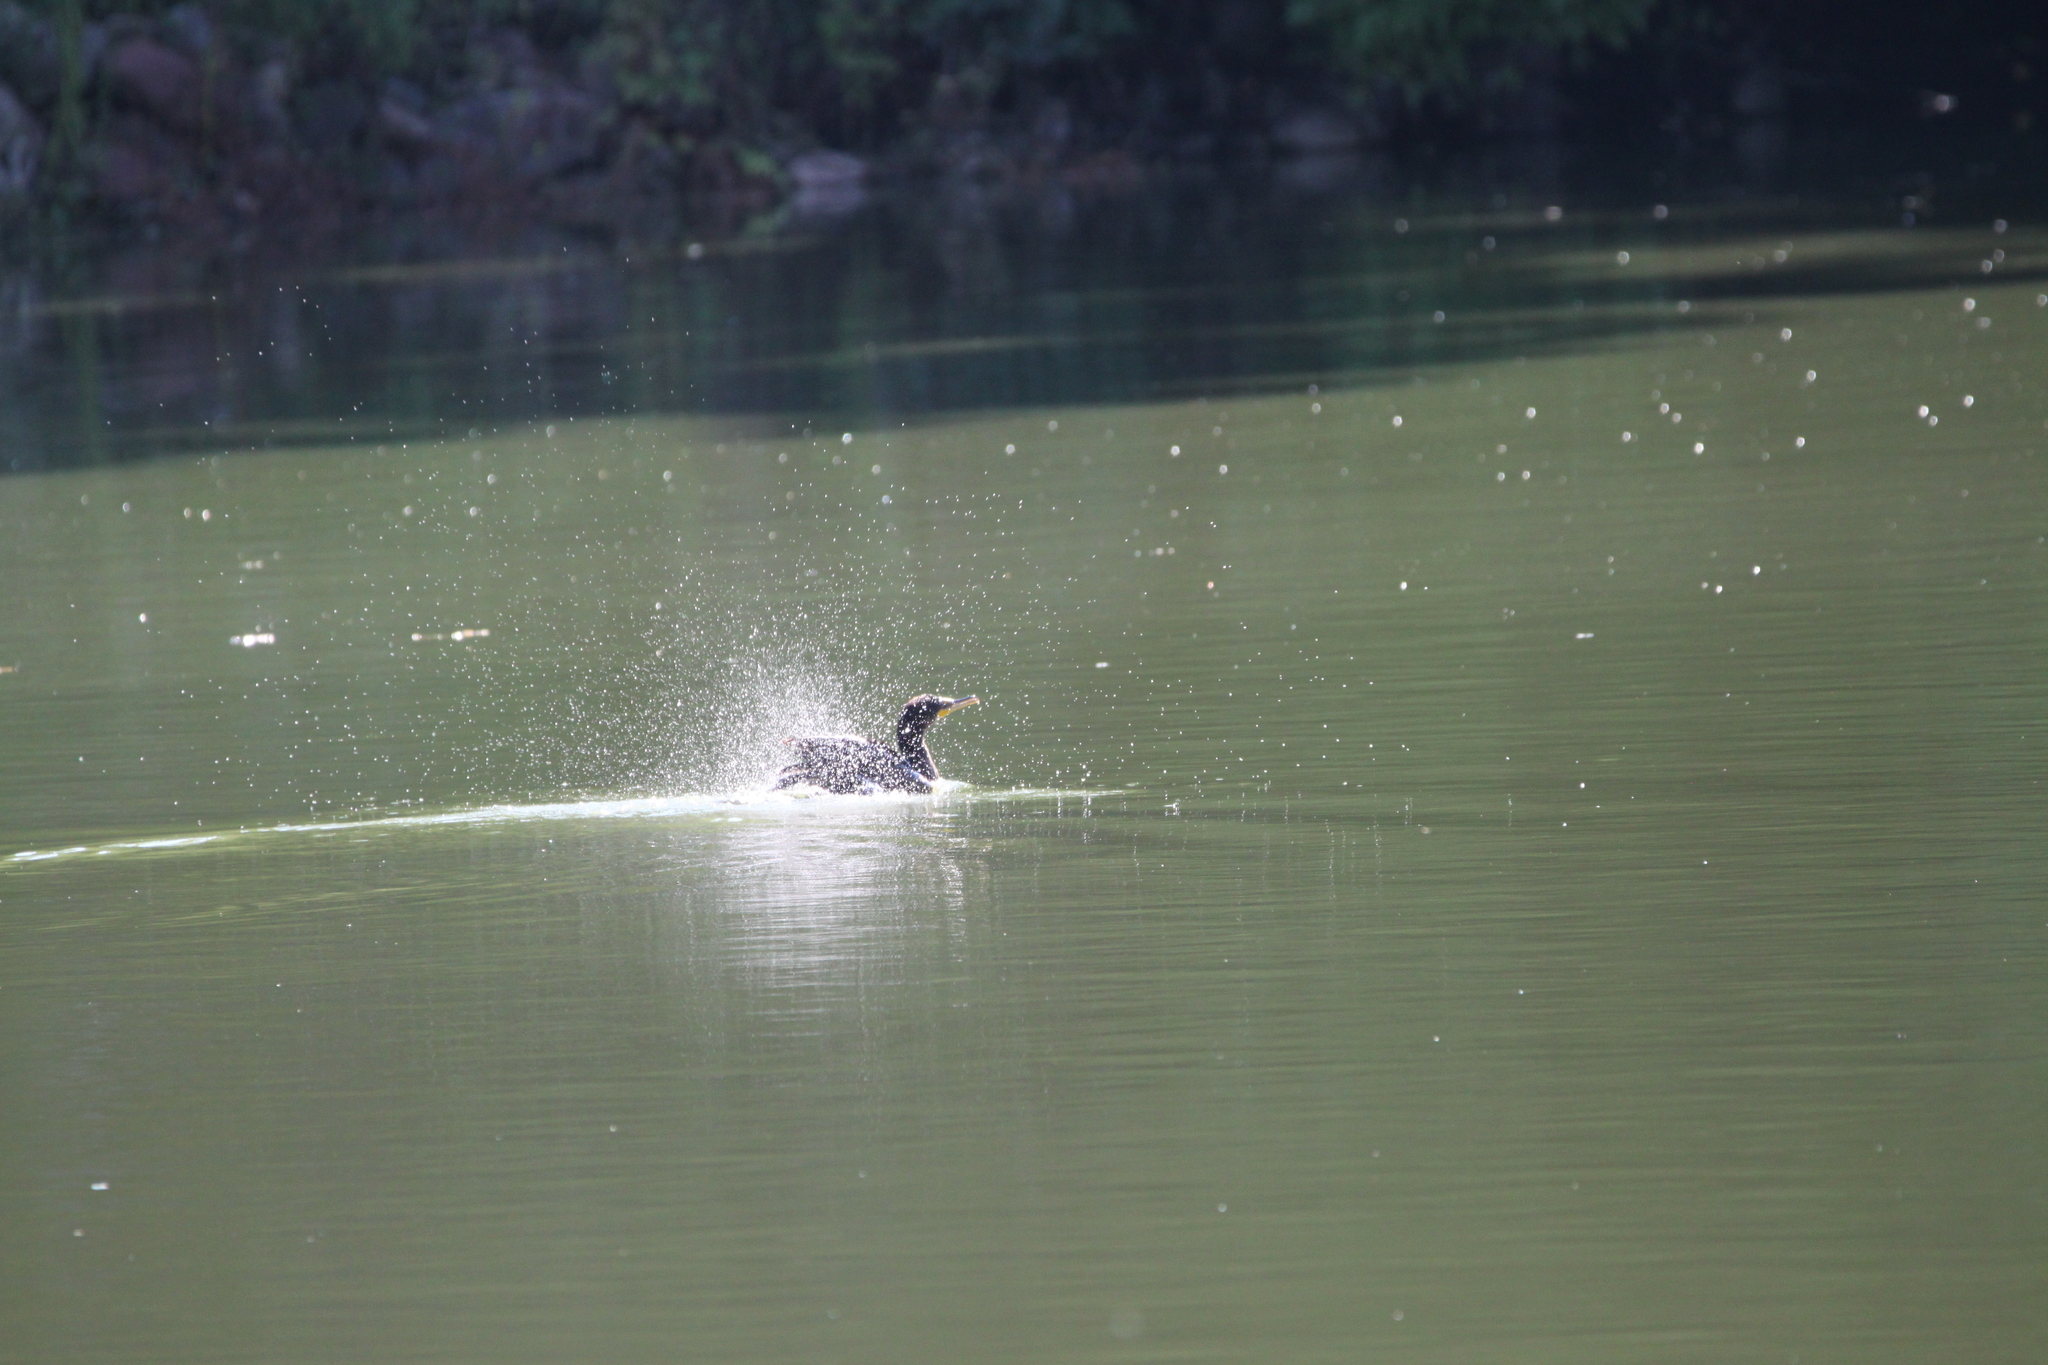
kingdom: Animalia
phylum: Chordata
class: Aves
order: Suliformes
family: Phalacrocoracidae
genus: Phalacrocorax
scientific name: Phalacrocorax auritus
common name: Double-crested cormorant
